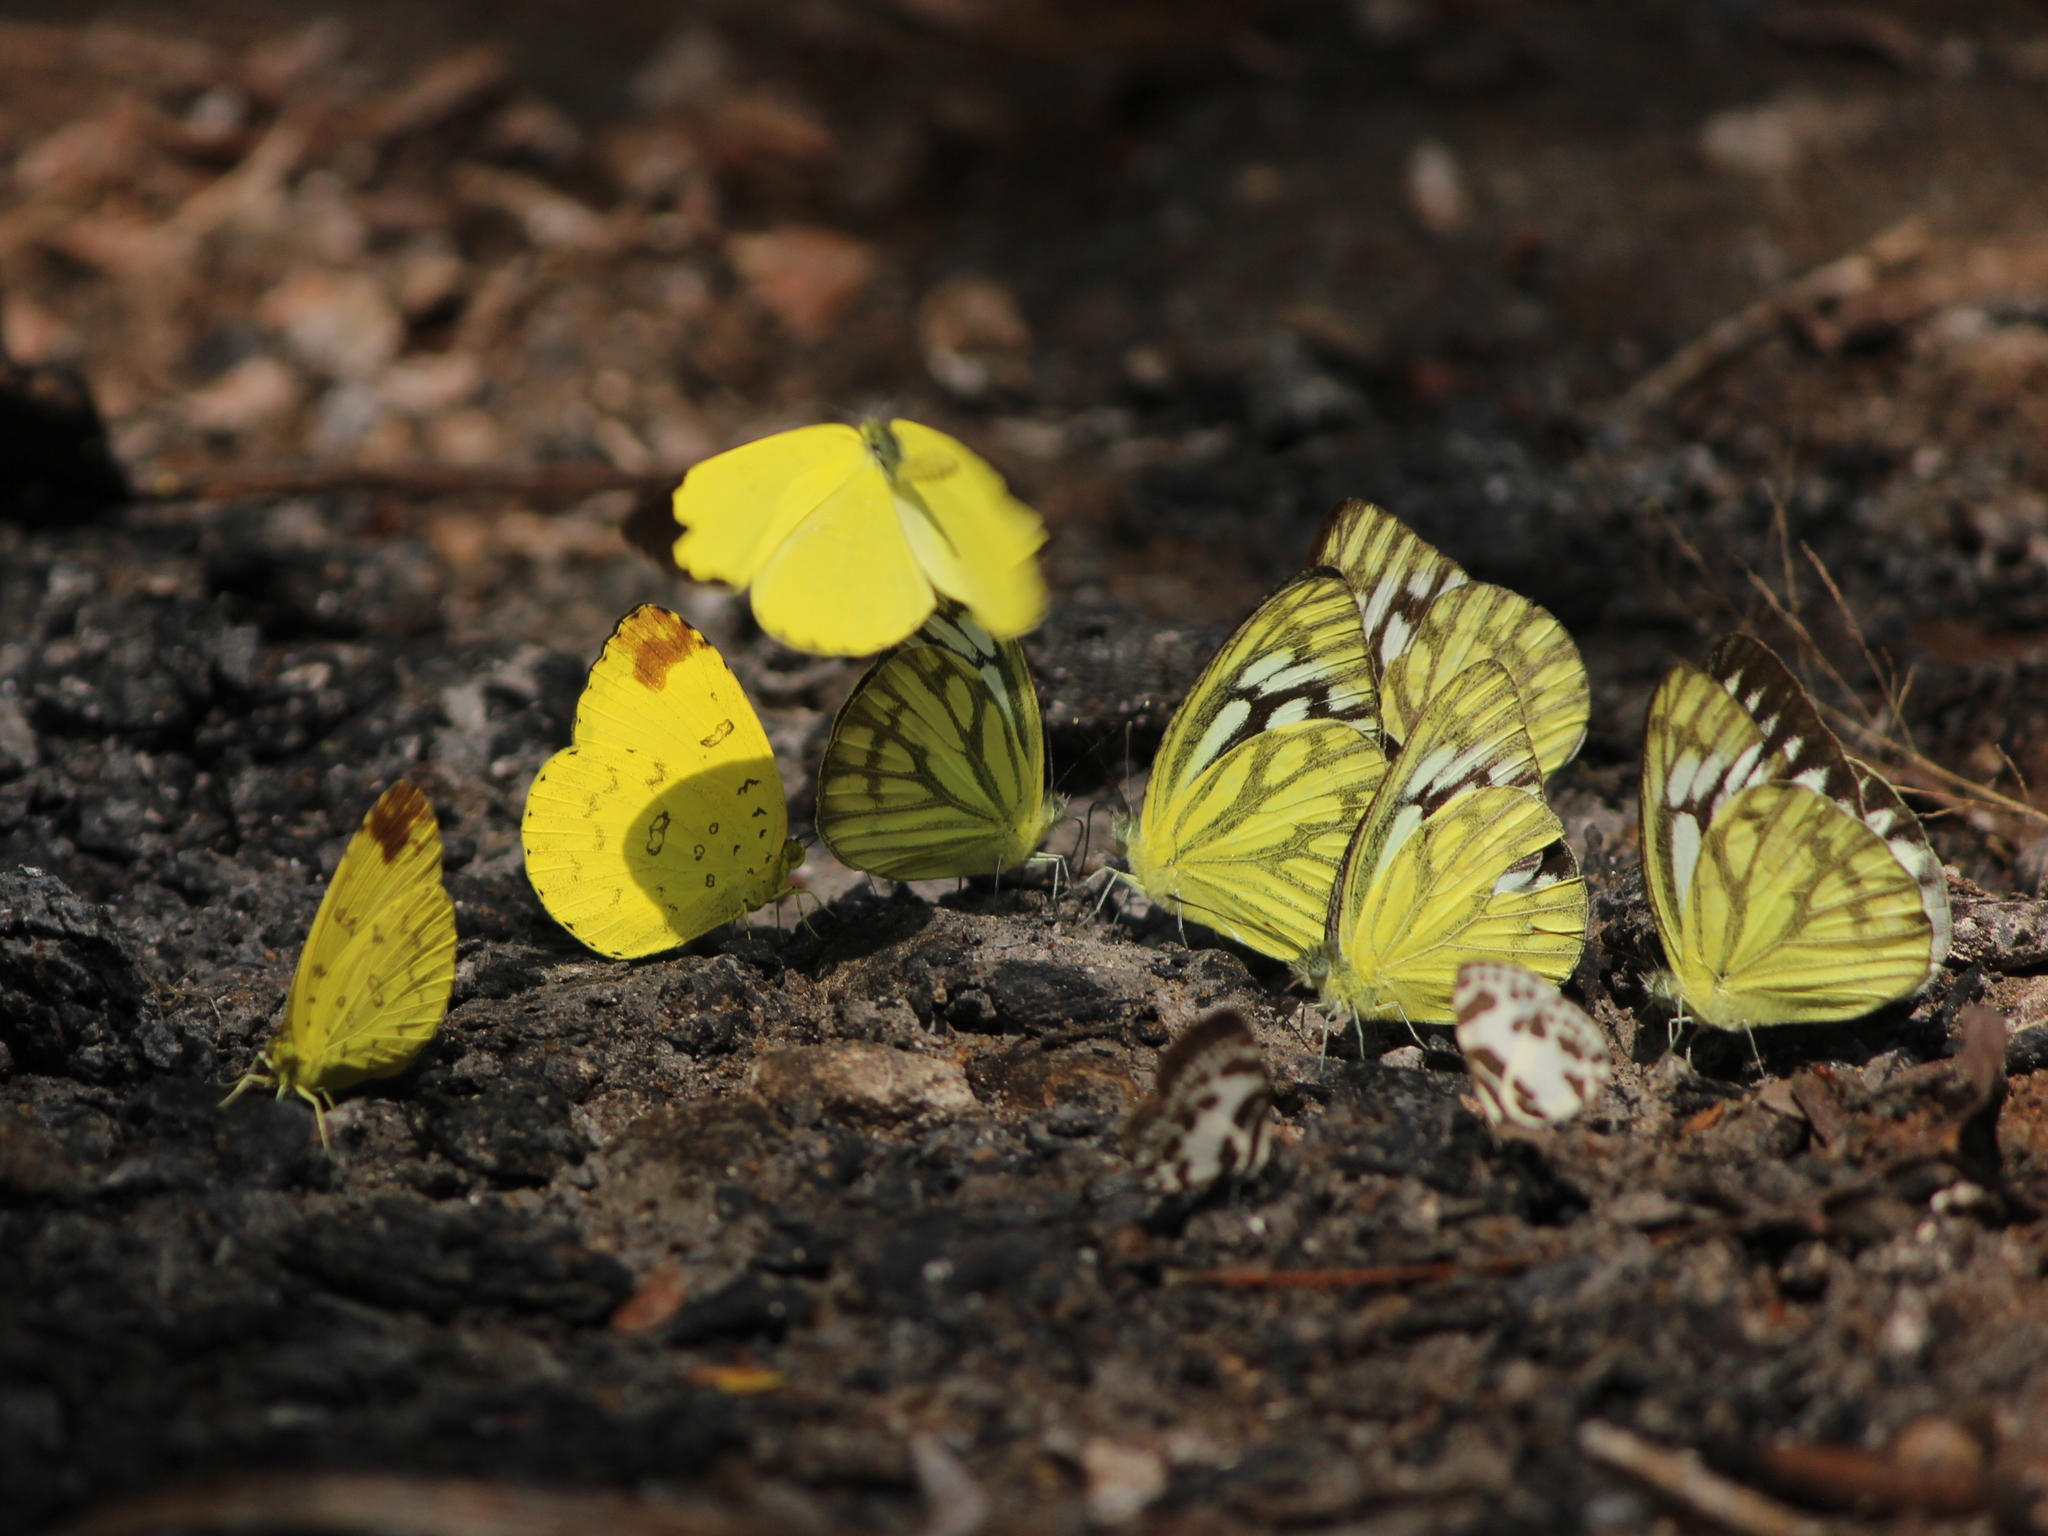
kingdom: Animalia
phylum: Arthropoda
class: Insecta
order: Lepidoptera
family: Pieridae
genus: Cepora
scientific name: Cepora nerissa
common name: Common gull
